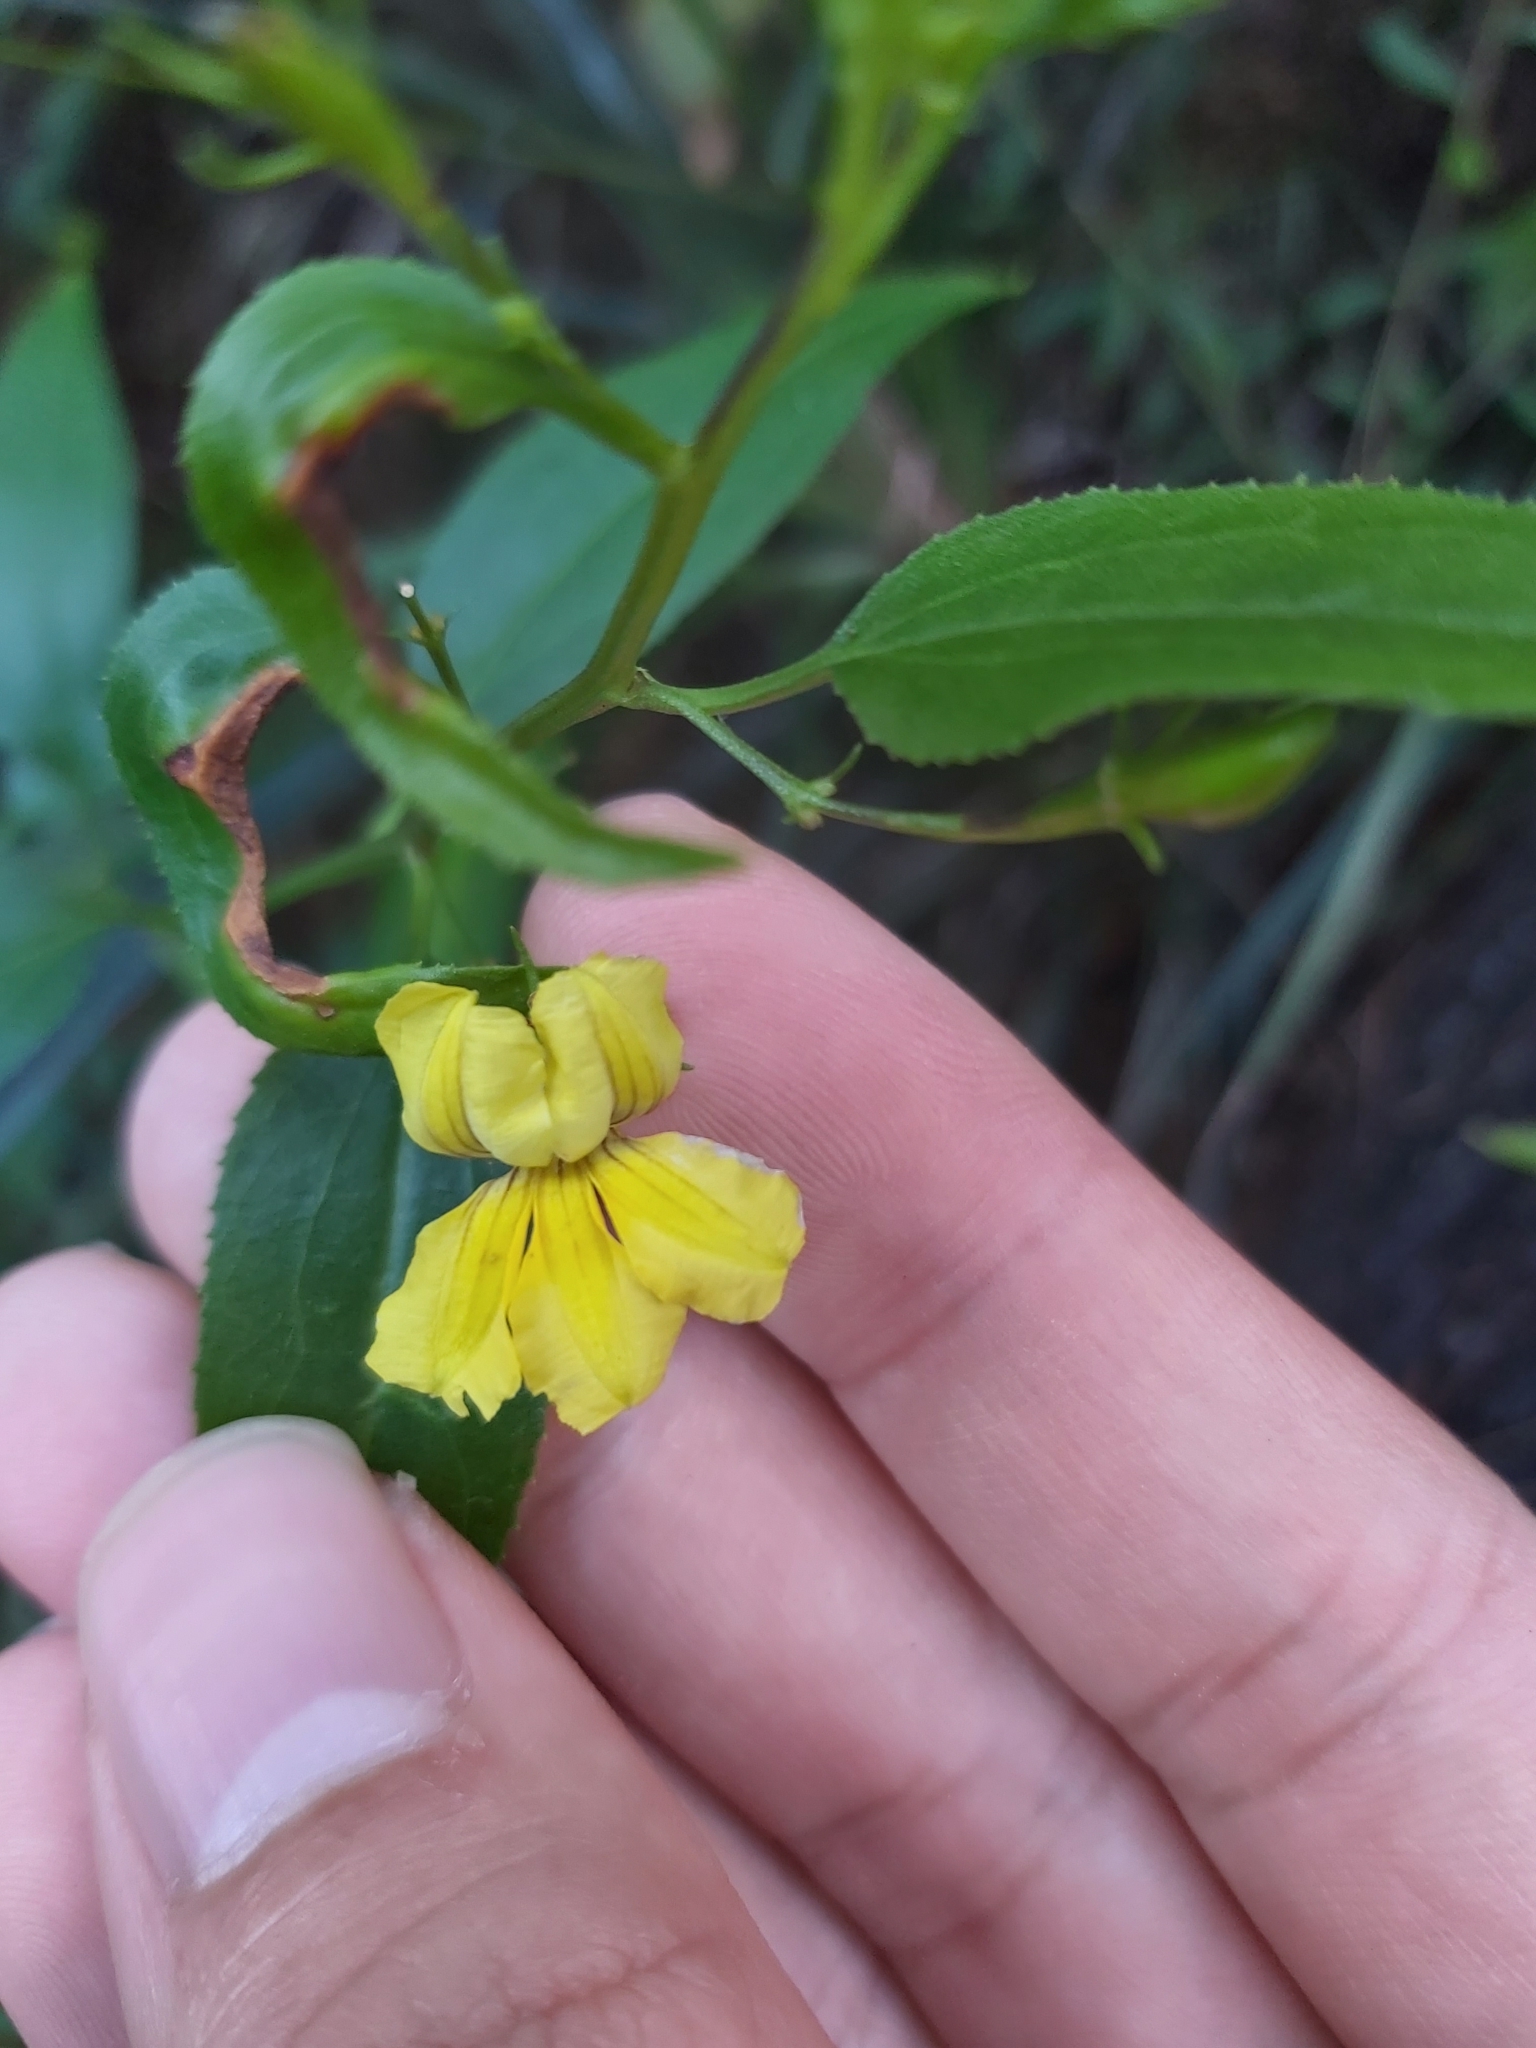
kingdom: Plantae
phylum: Tracheophyta
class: Magnoliopsida
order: Asterales
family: Goodeniaceae
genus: Goodenia
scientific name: Goodenia ovata
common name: Hop goodenia
